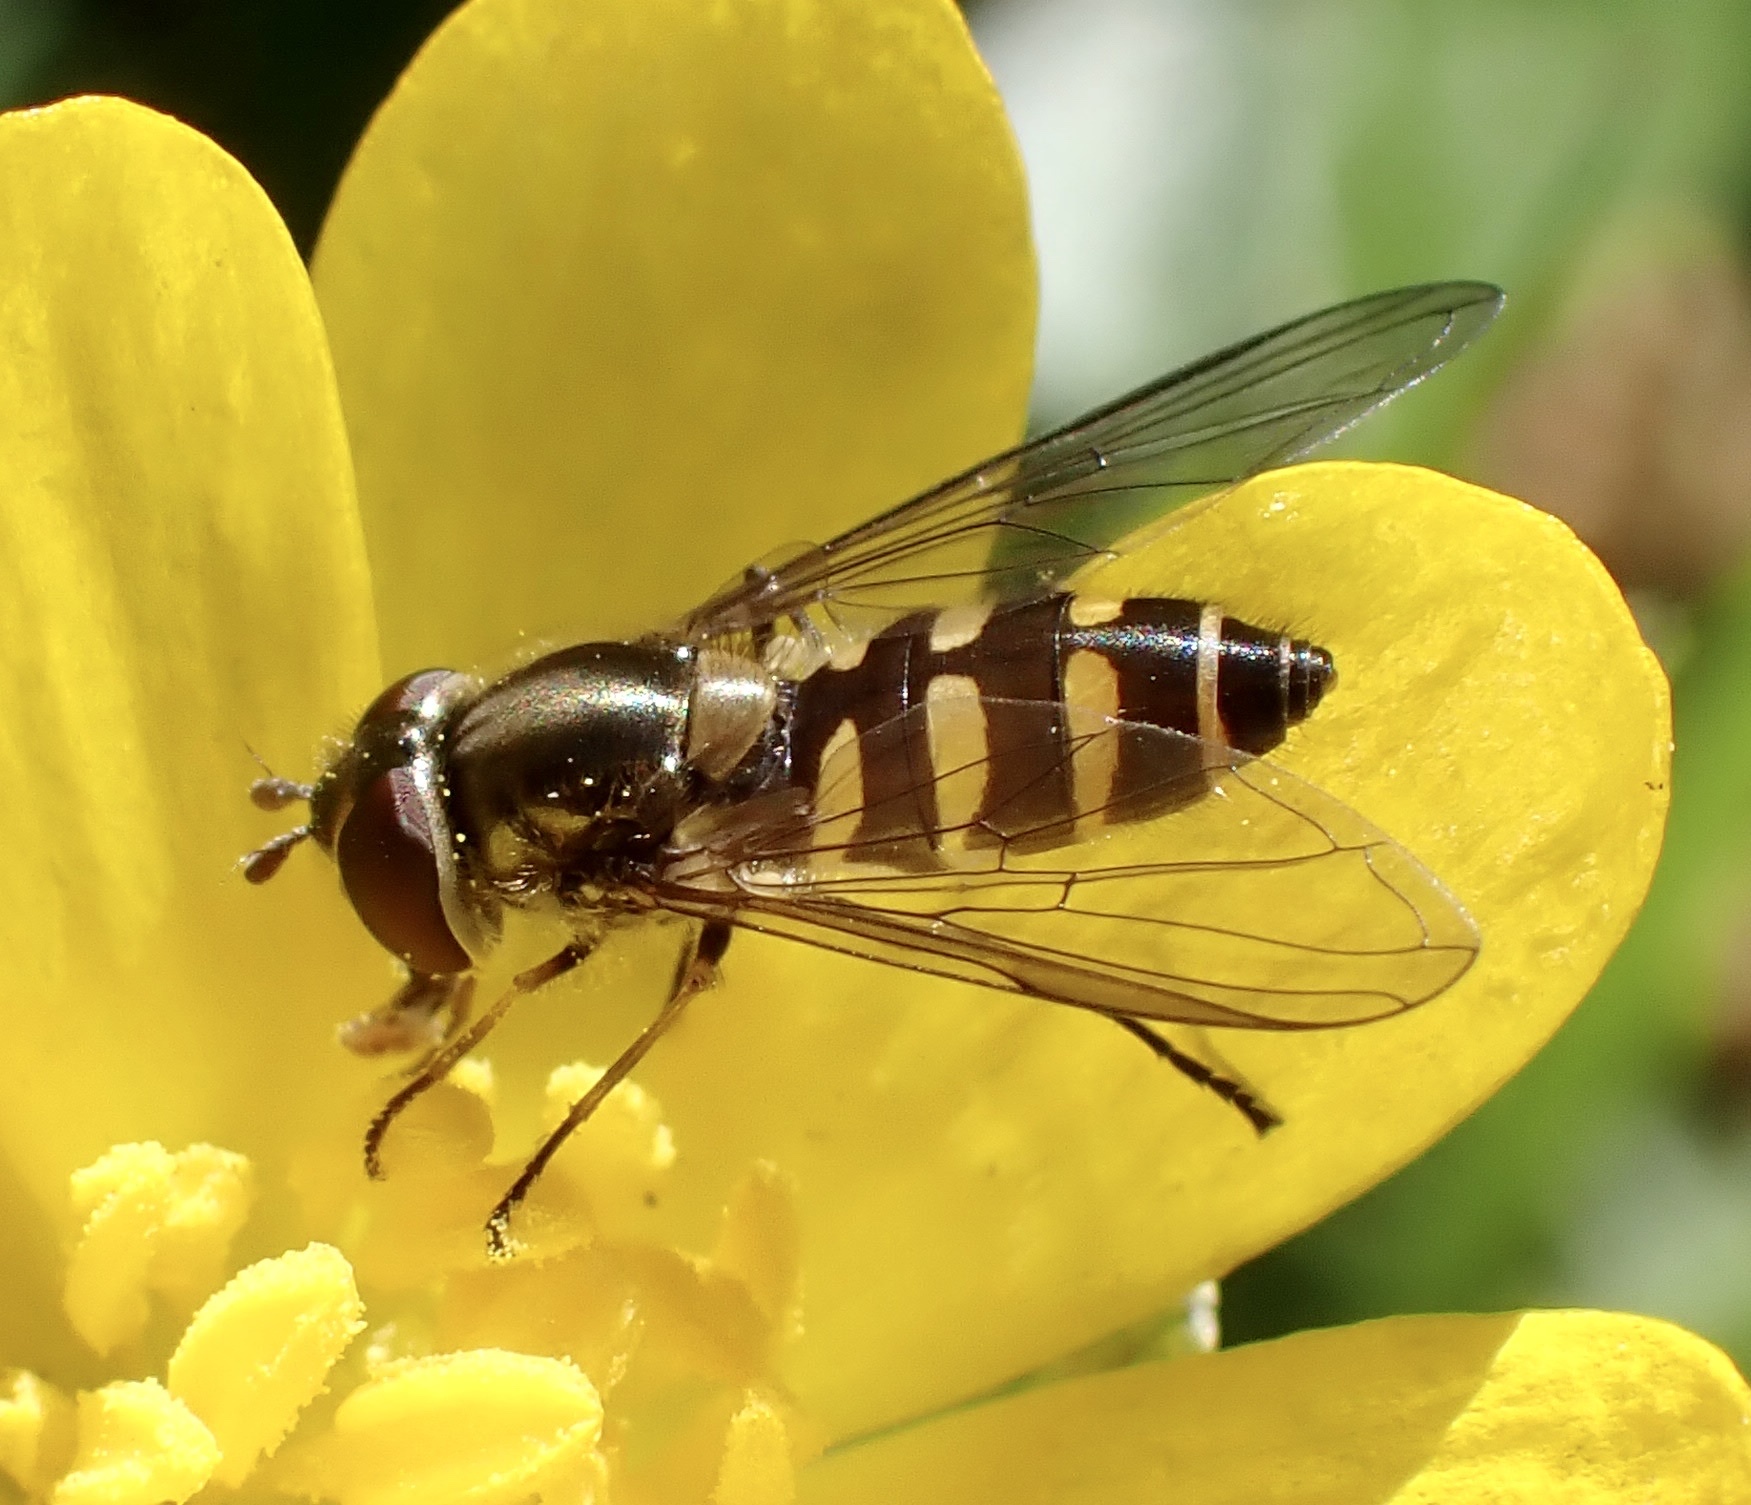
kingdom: Animalia
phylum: Arthropoda
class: Insecta
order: Diptera
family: Syrphidae
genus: Parasyrphus
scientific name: Parasyrphus punctulatus
